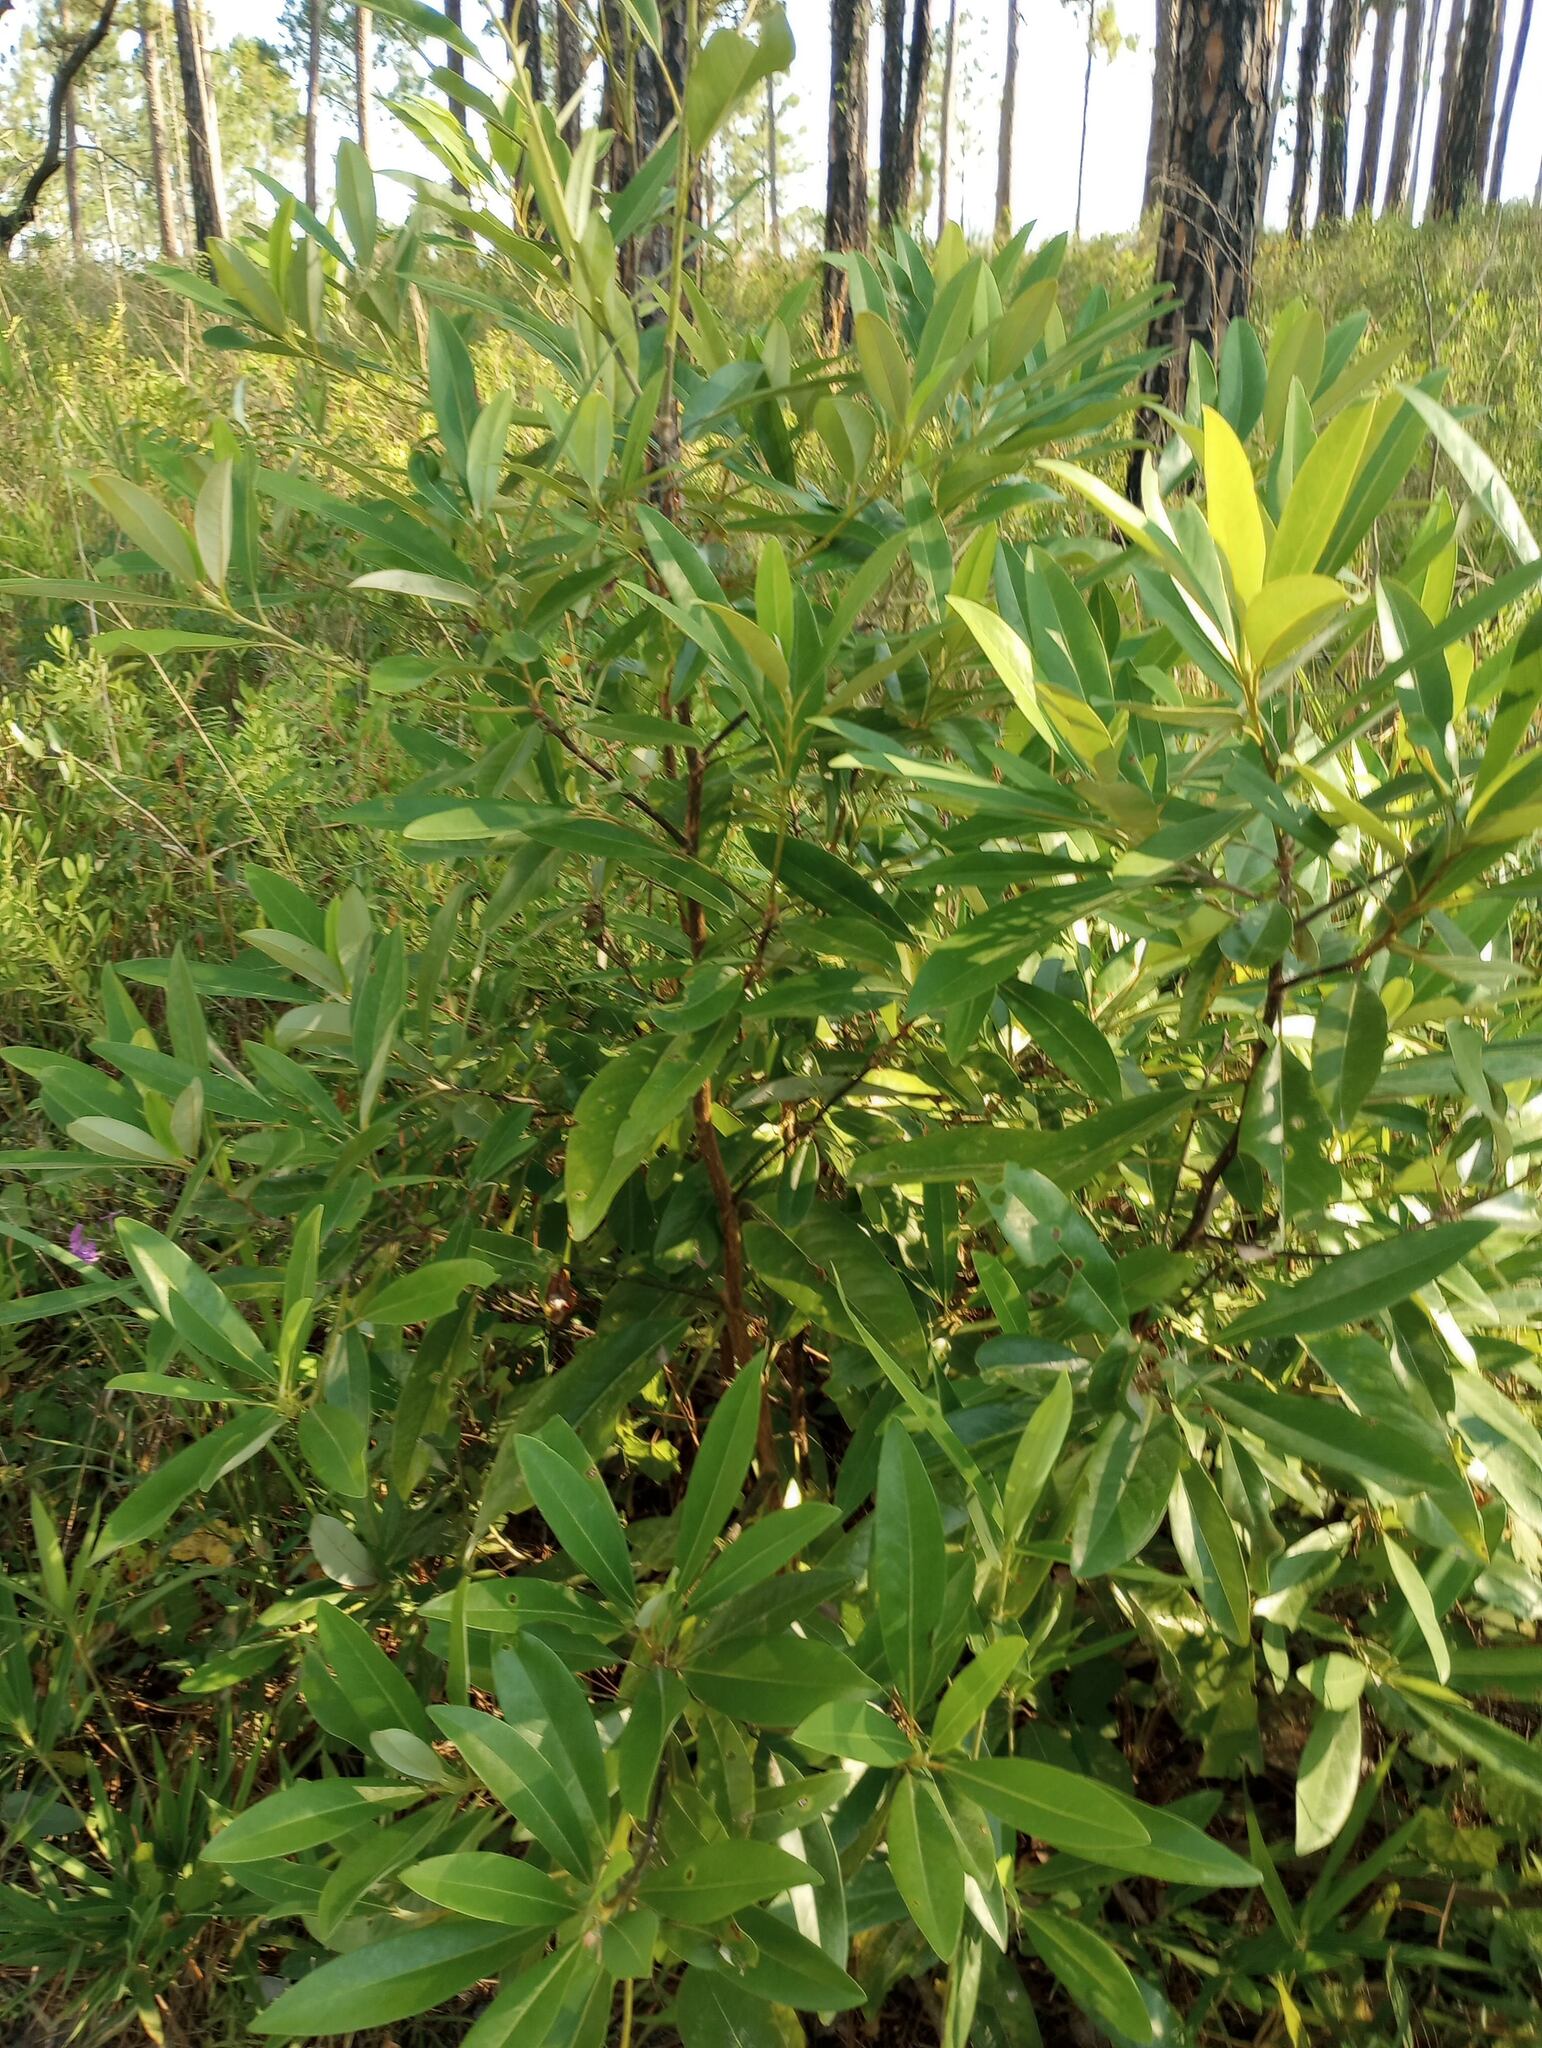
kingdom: Plantae
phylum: Tracheophyta
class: Magnoliopsida
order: Magnoliales
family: Magnoliaceae
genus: Magnolia
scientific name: Magnolia virginiana
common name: Swamp bay
